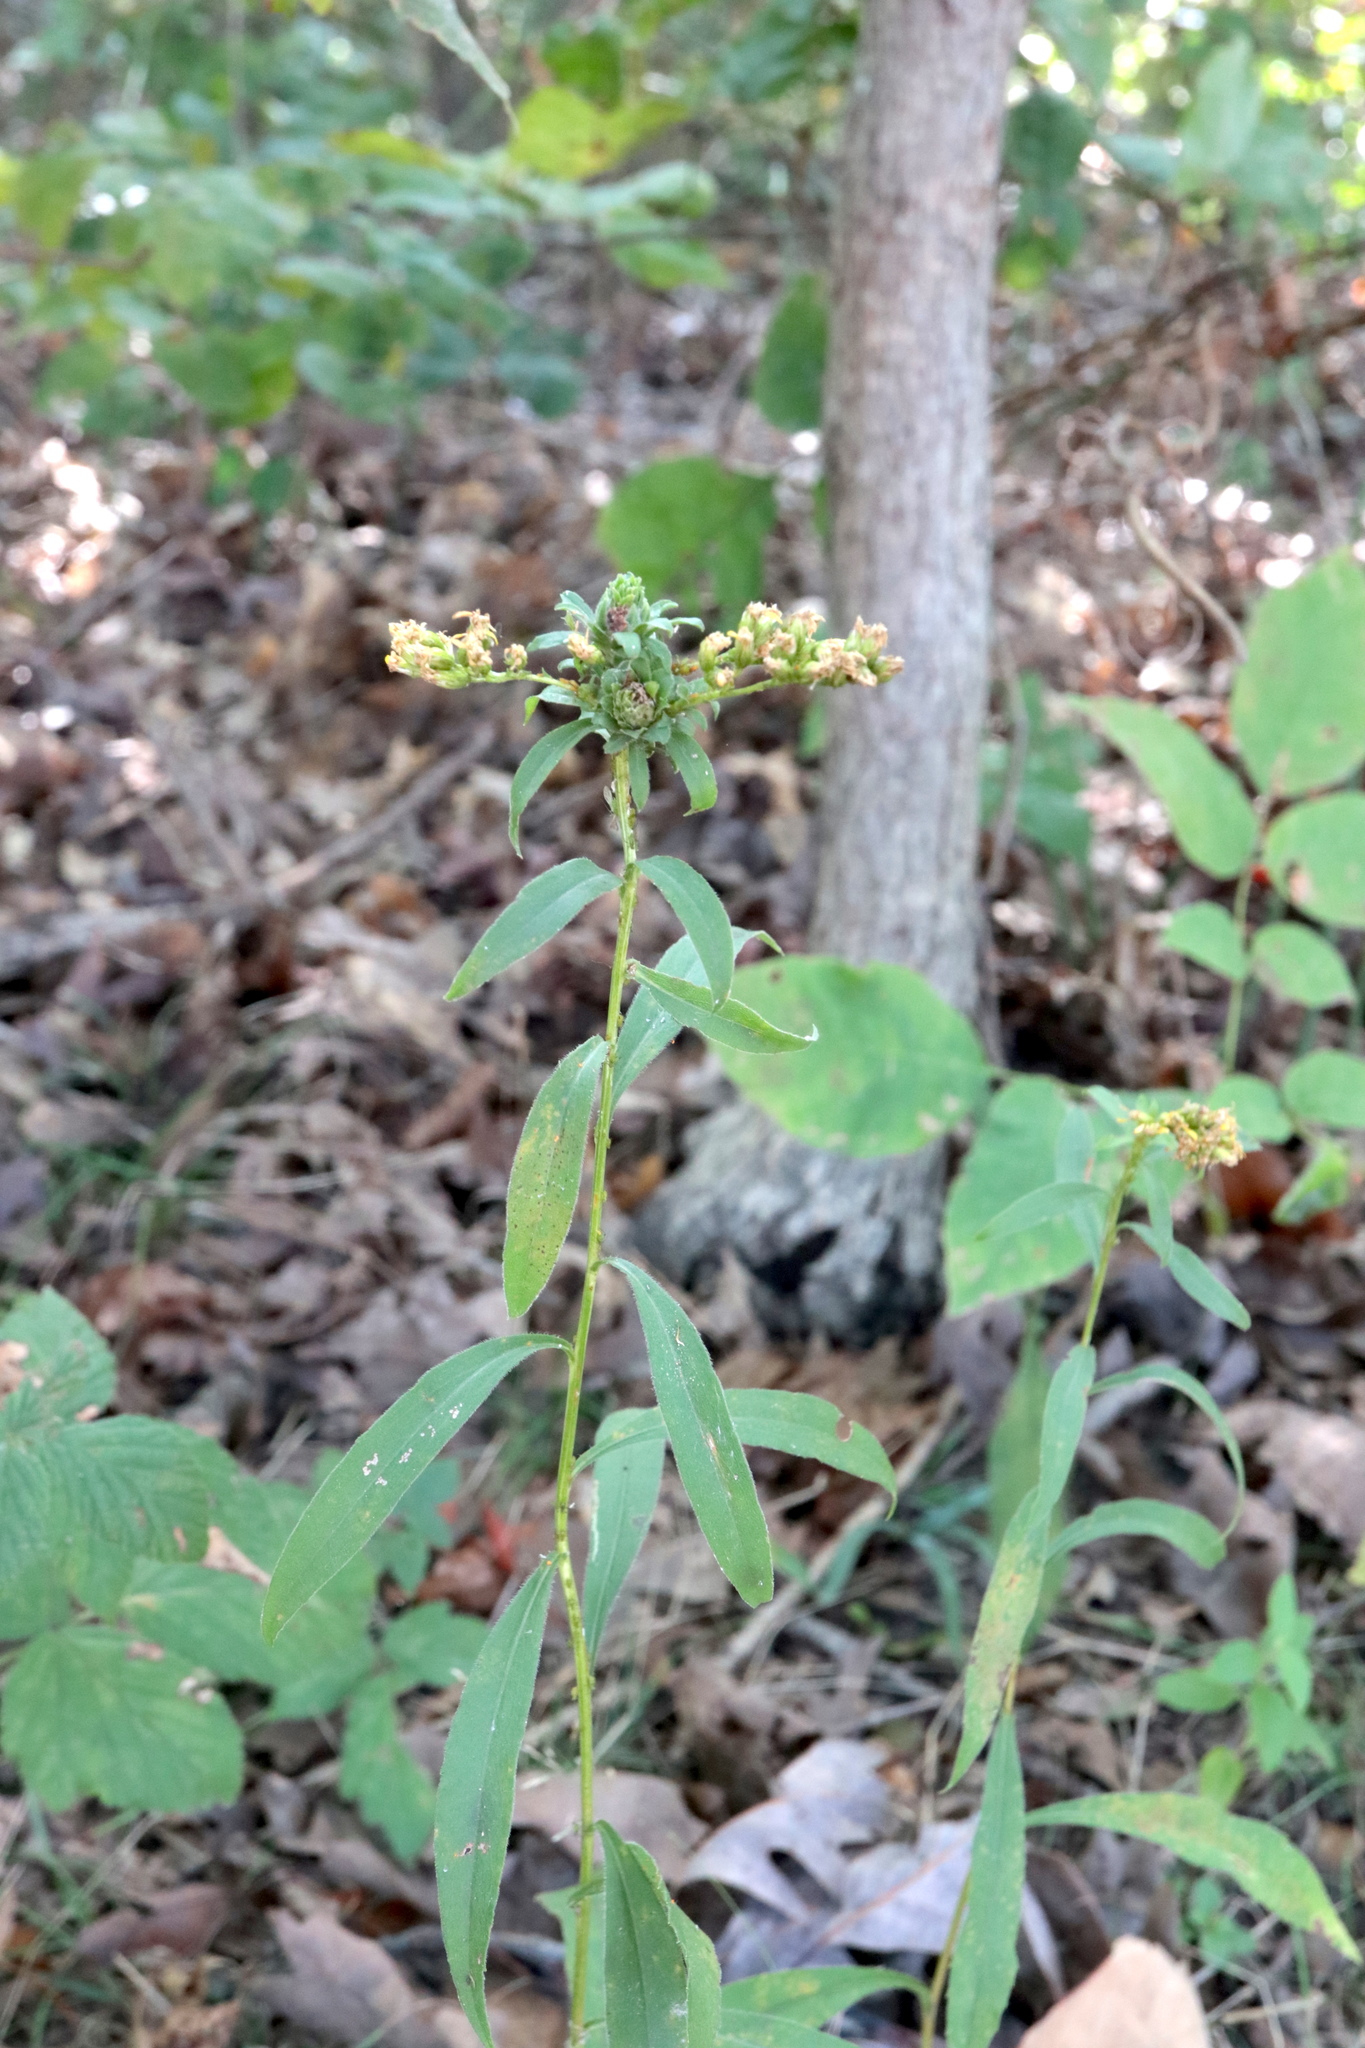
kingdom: Animalia
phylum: Arthropoda
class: Insecta
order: Diptera
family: Tephritidae
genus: Procecidochares
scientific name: Procecidochares atra
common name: Goldenrod brussels sprout gall fly
